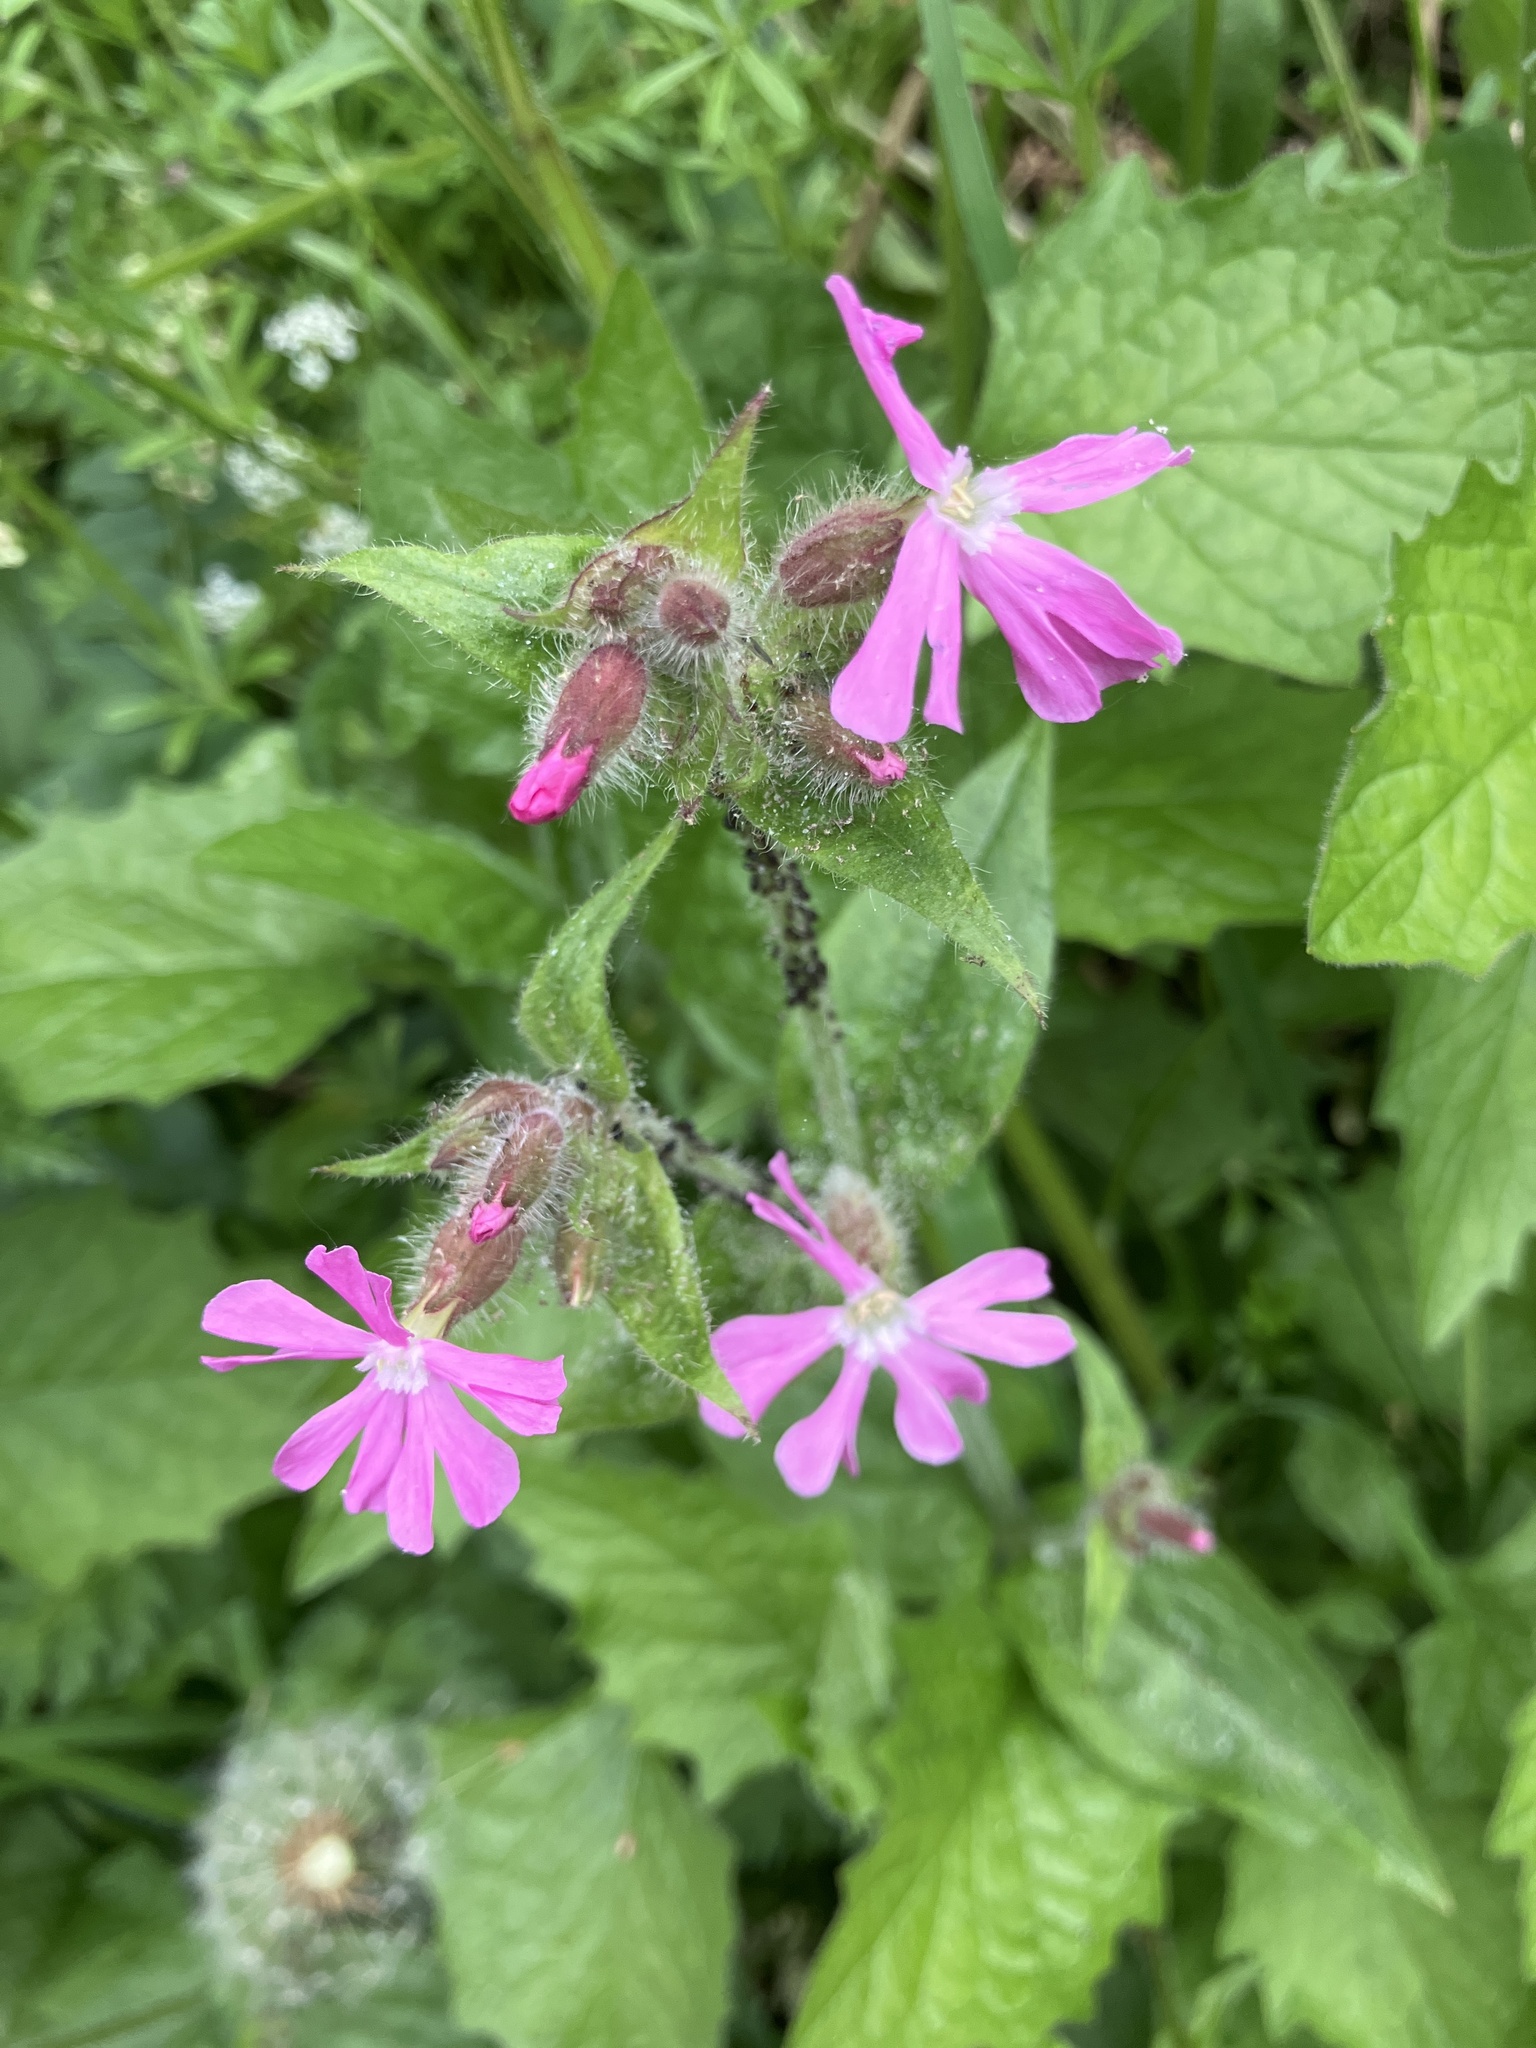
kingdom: Plantae
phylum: Tracheophyta
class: Magnoliopsida
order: Caryophyllales
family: Caryophyllaceae
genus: Silene
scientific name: Silene dioica
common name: Red campion
